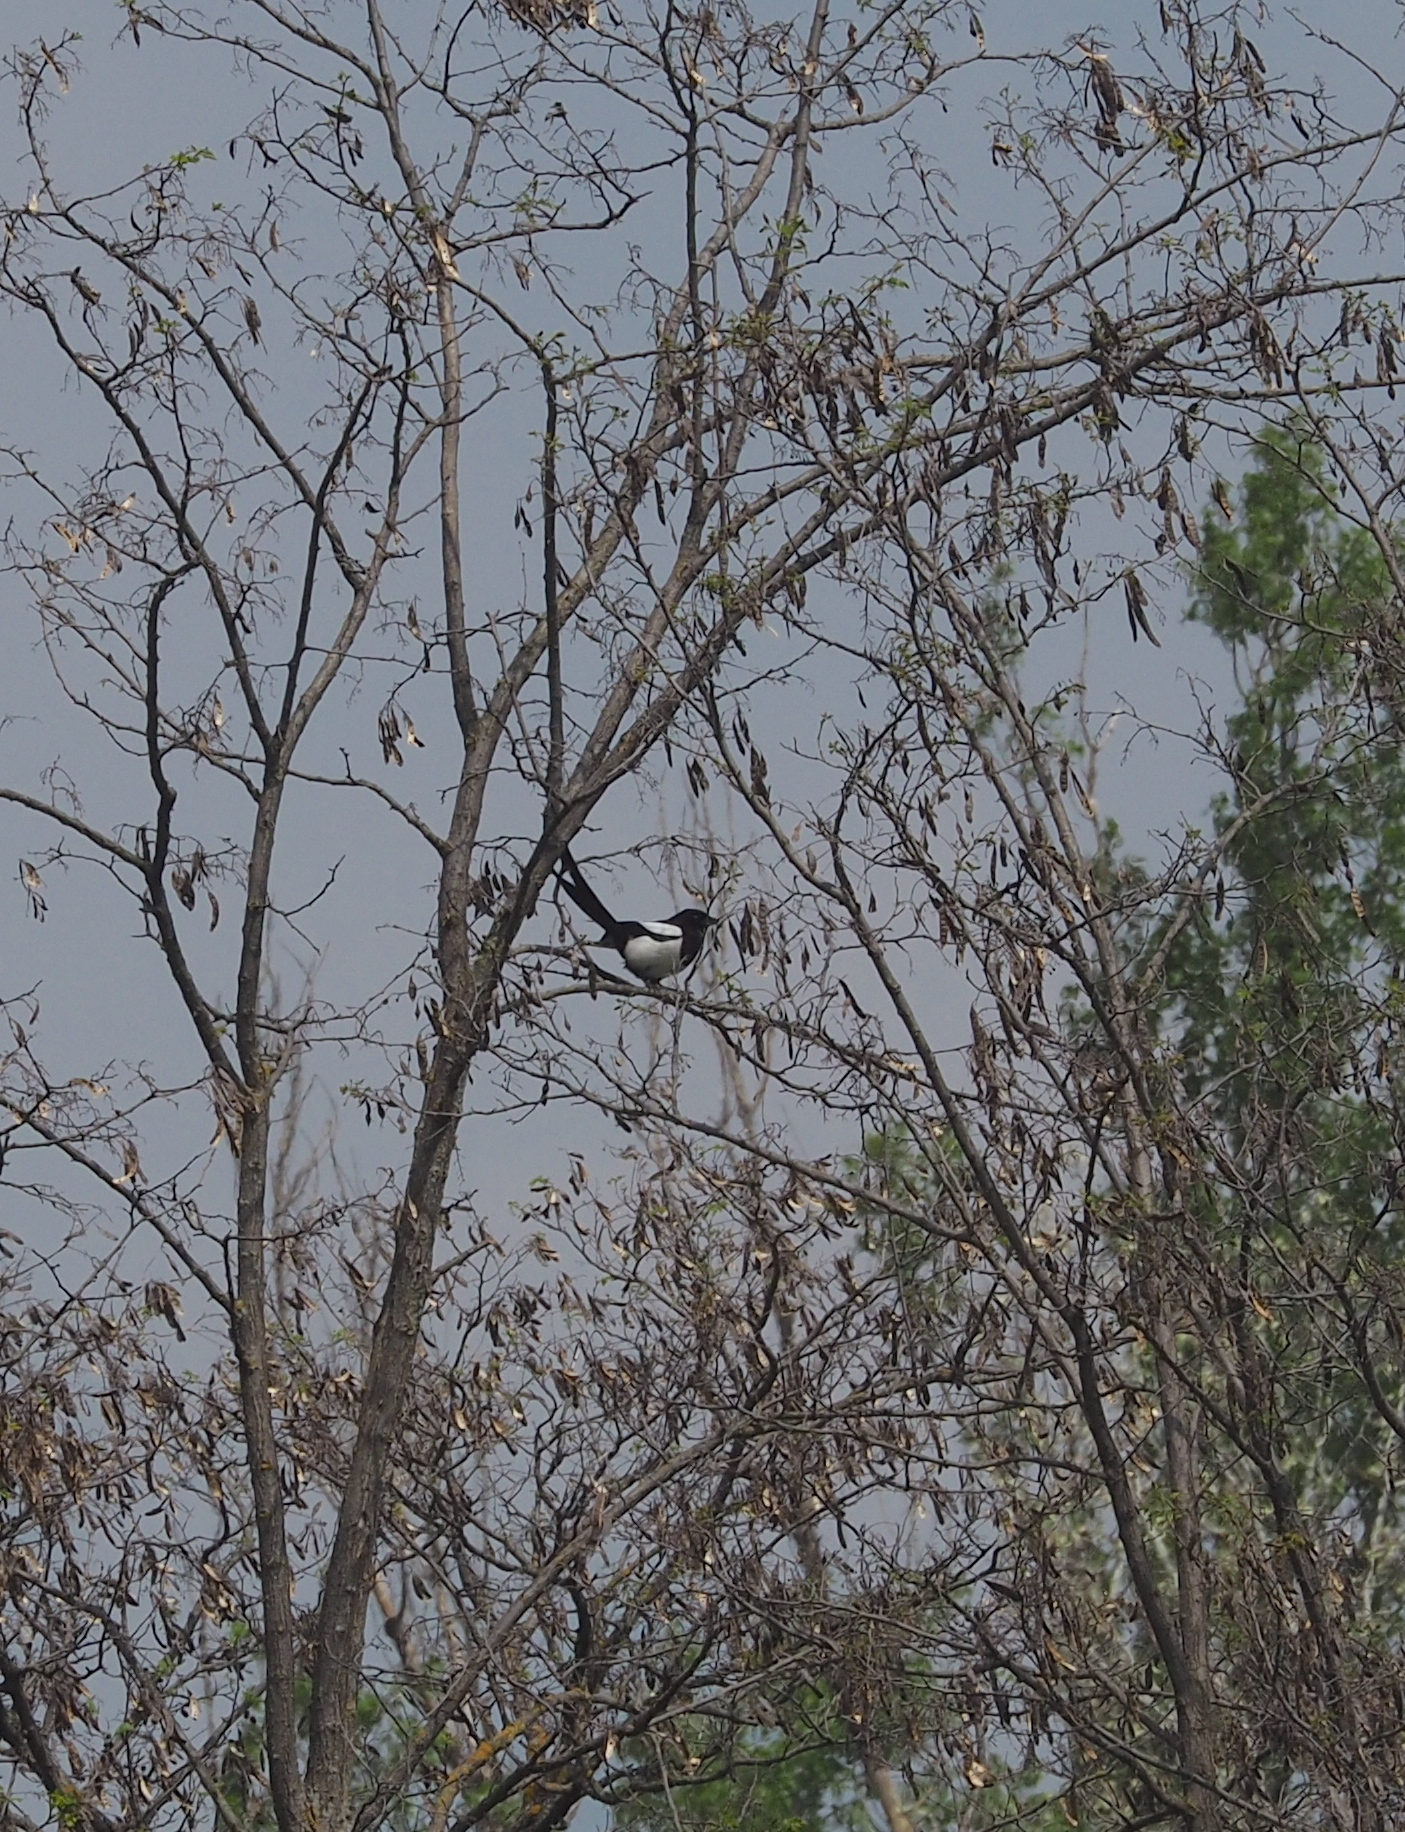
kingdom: Animalia
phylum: Chordata
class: Aves
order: Passeriformes
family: Corvidae
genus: Pica
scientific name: Pica pica
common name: Eurasian magpie
